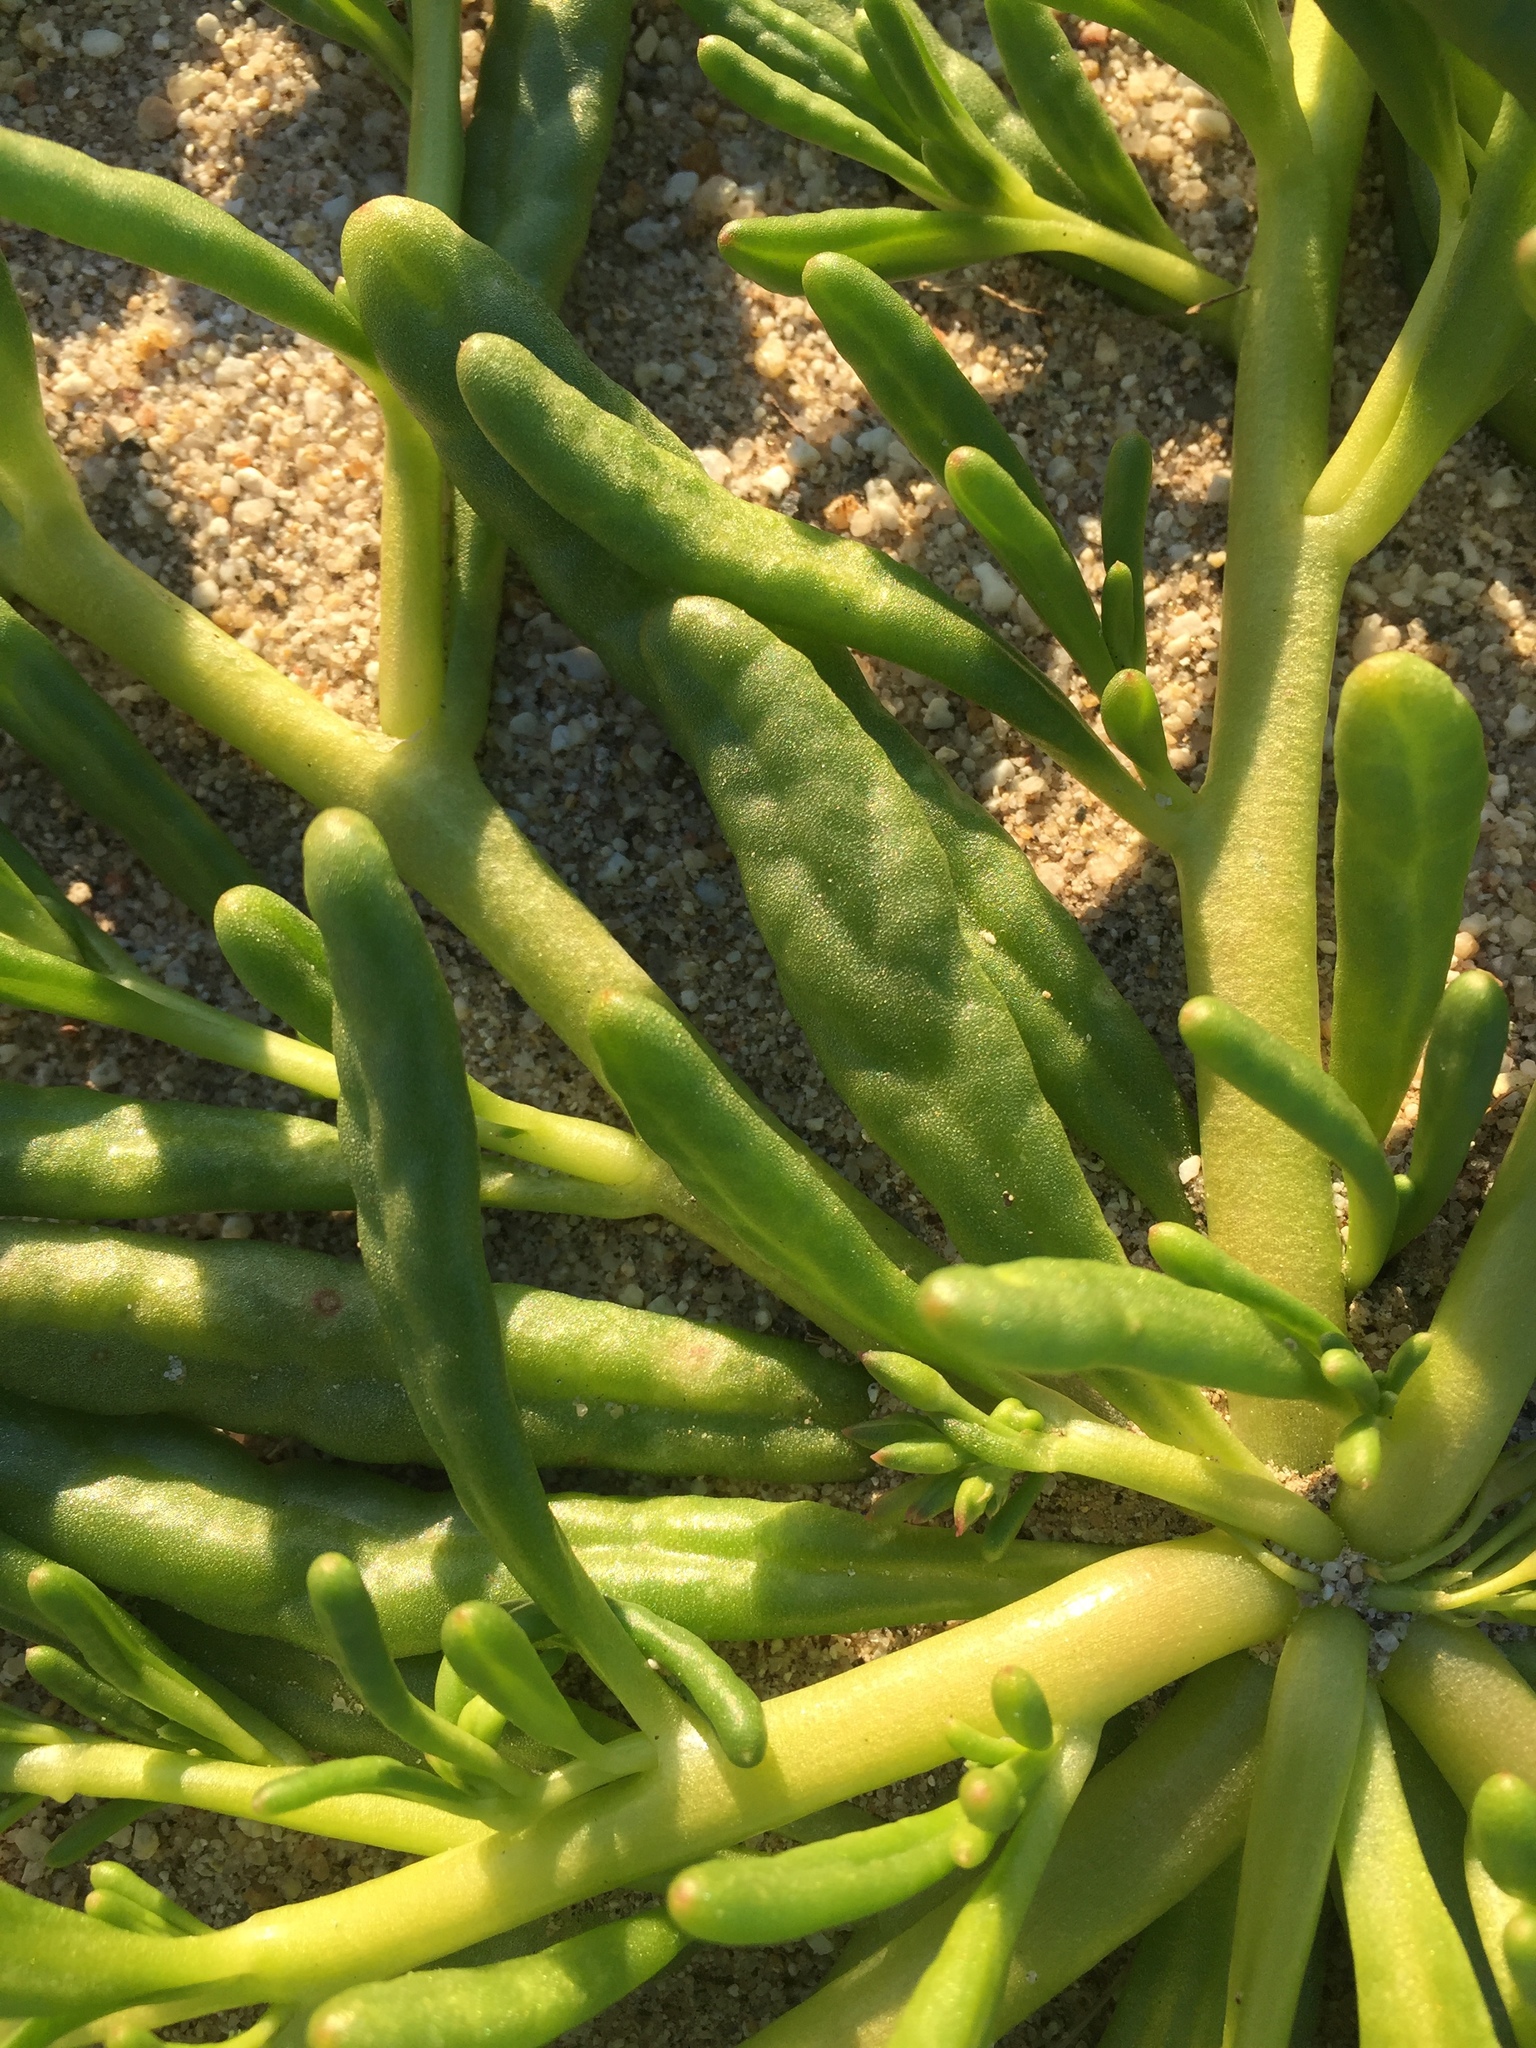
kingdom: Plantae
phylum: Tracheophyta
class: Magnoliopsida
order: Caryophyllales
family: Montiaceae
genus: Thingia
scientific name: Thingia ambigua
